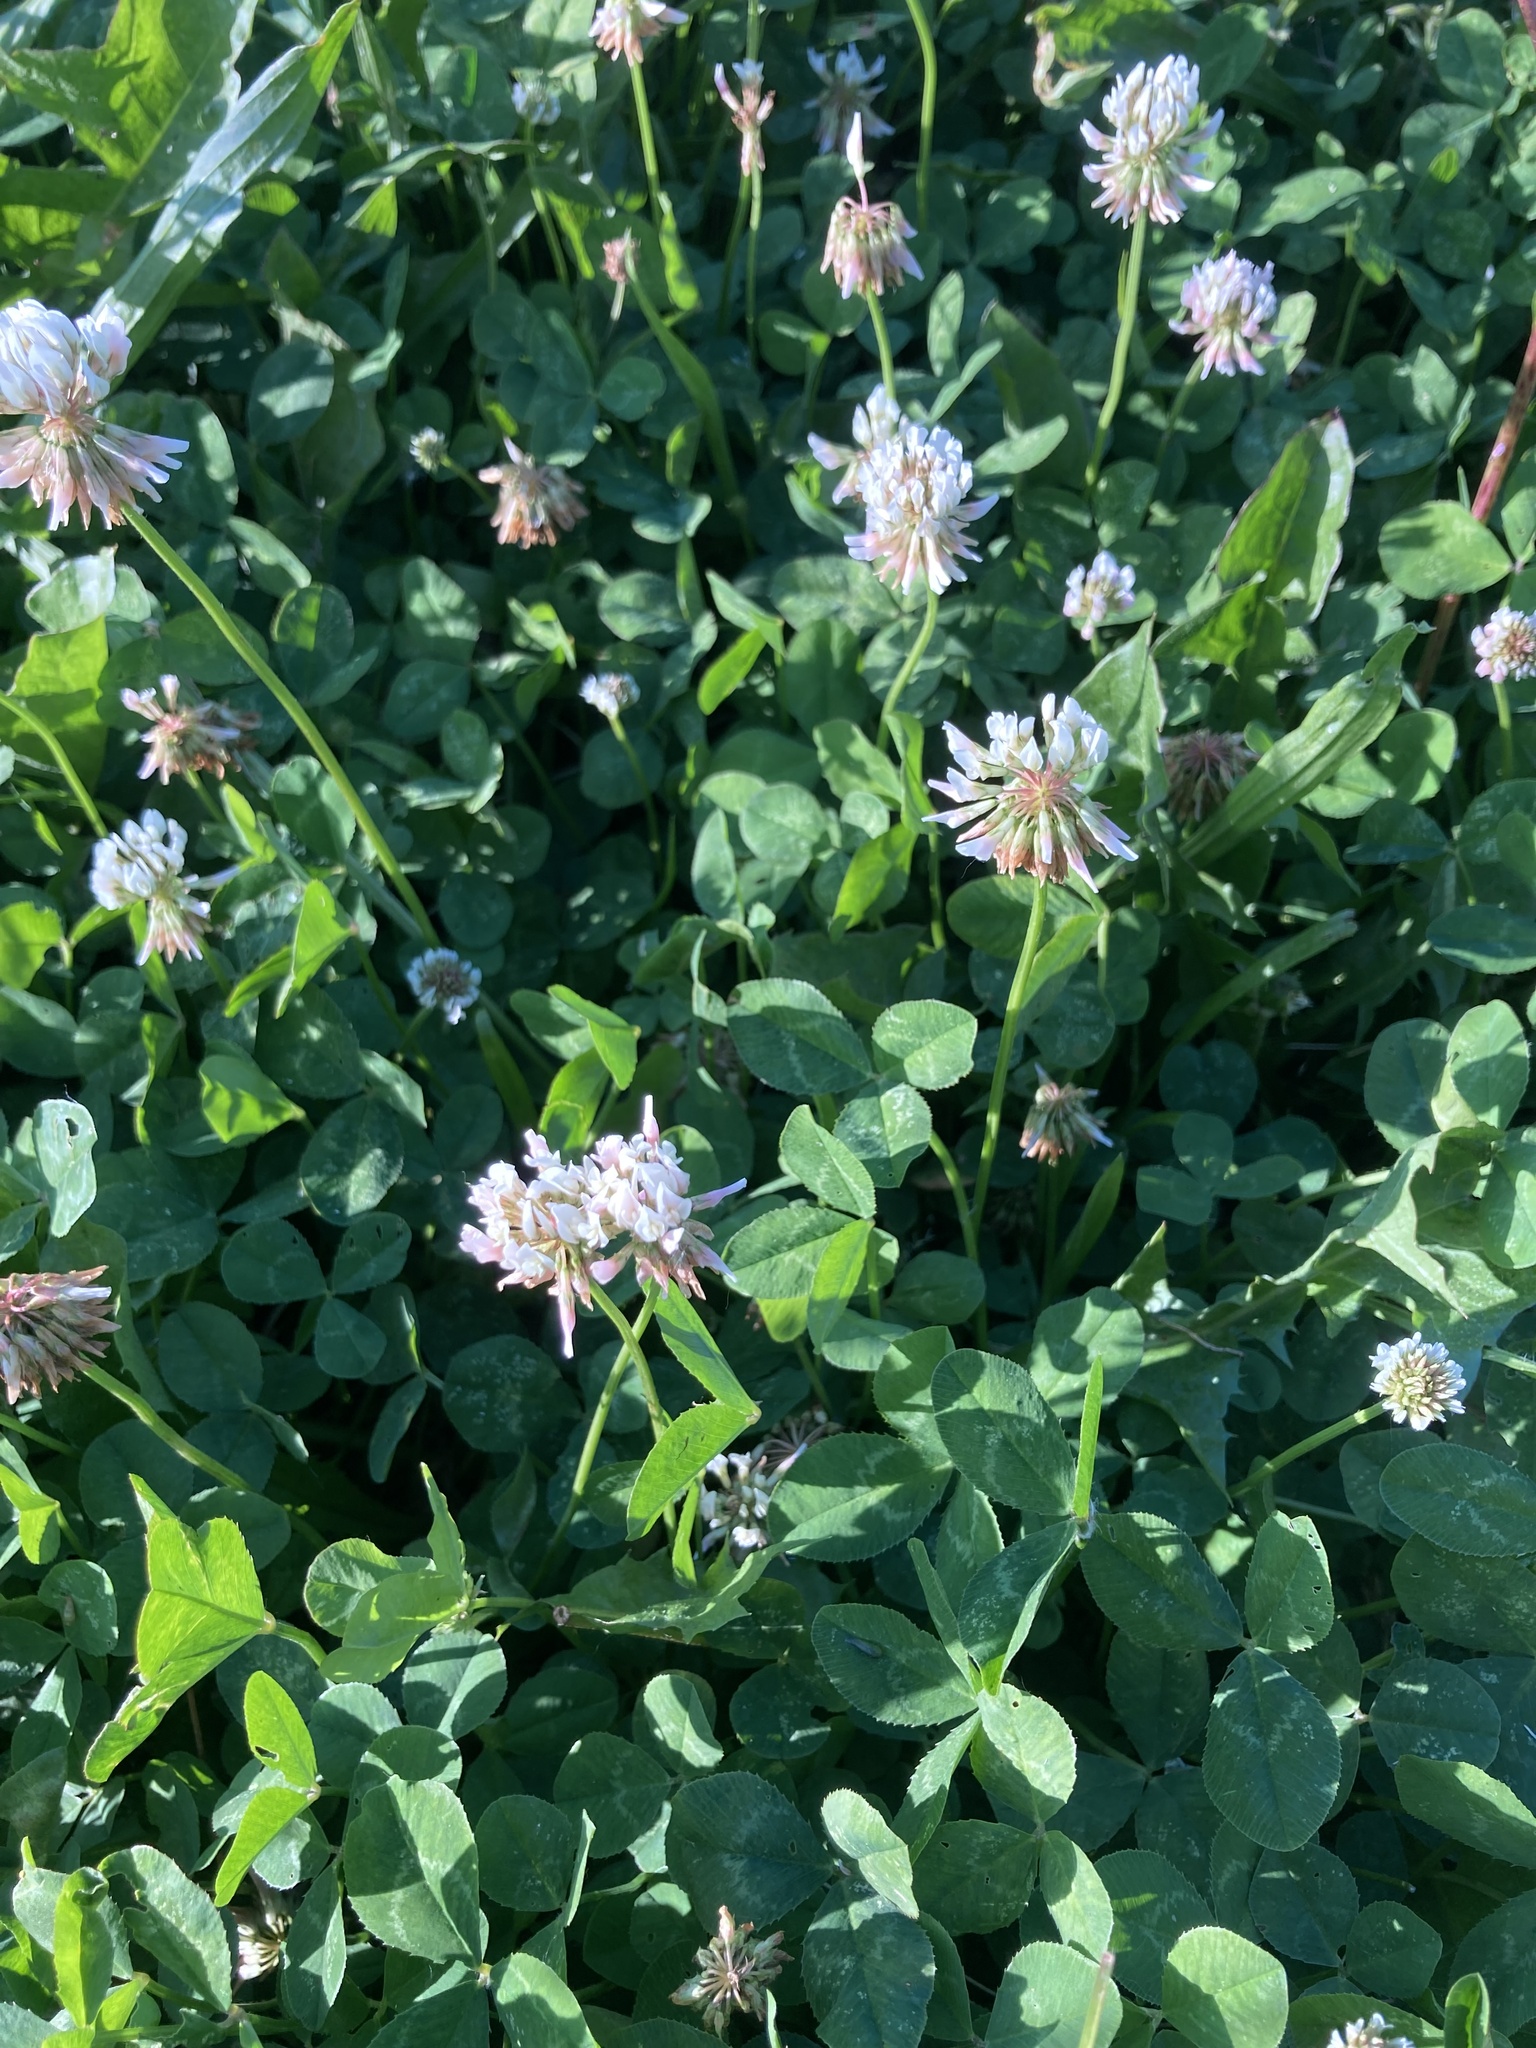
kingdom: Plantae
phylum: Tracheophyta
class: Magnoliopsida
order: Fabales
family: Fabaceae
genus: Trifolium
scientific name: Trifolium repens
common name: White clover
